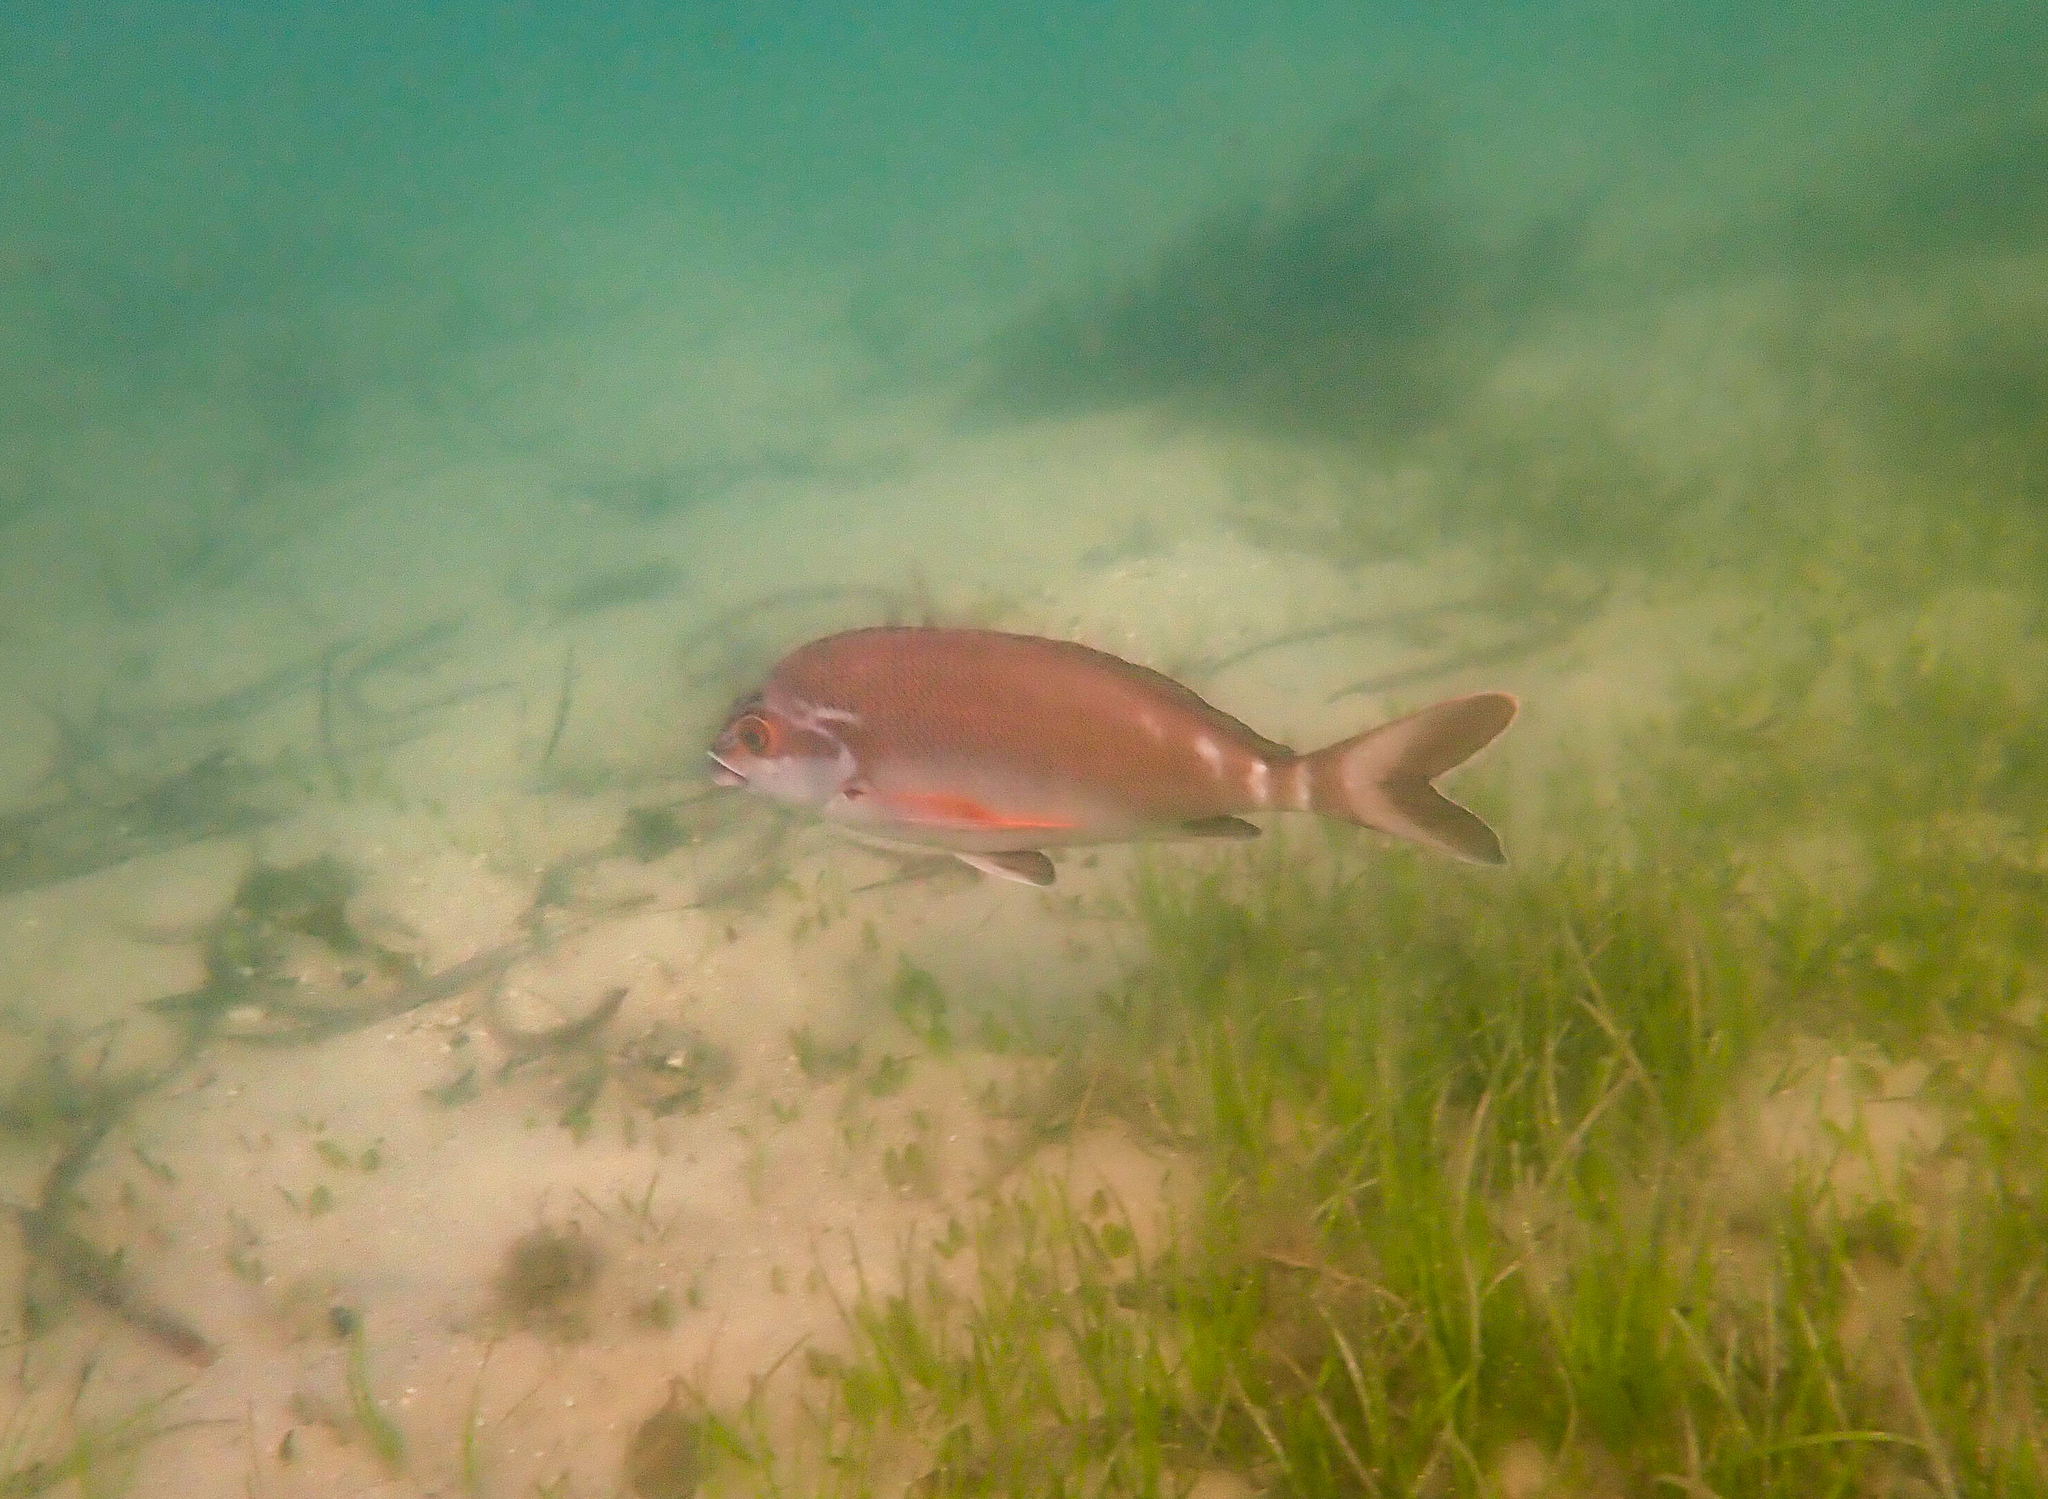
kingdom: Animalia
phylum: Chordata
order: Perciformes
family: Latridae
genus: Morwong
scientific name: Morwong fuscus
